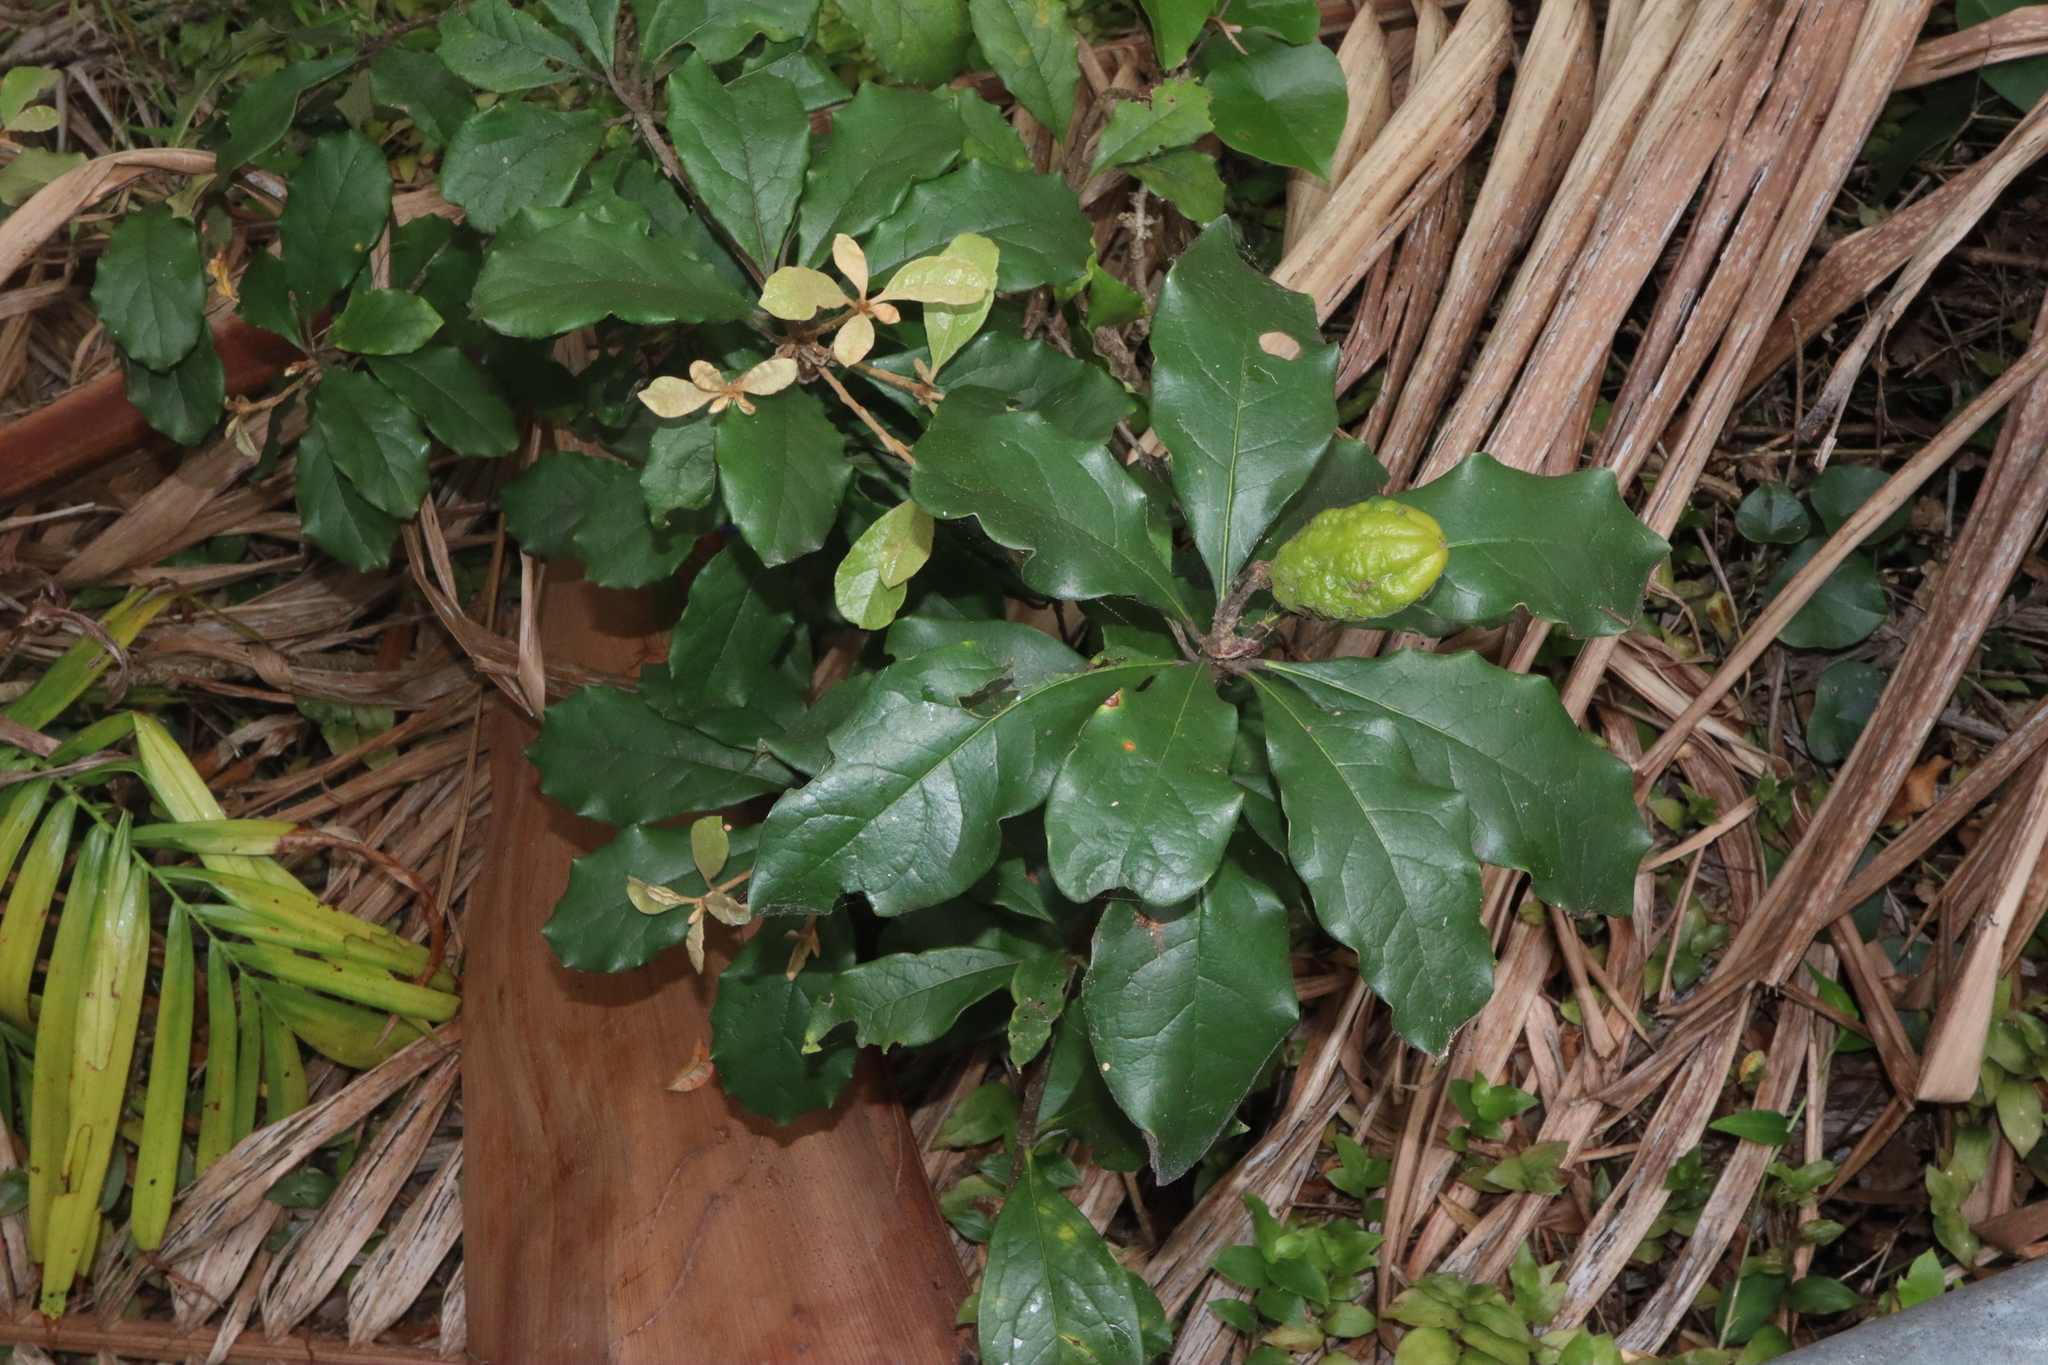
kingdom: Plantae
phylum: Tracheophyta
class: Magnoliopsida
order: Apiales
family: Pittosporaceae
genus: Pittosporum
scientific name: Pittosporum revolutum
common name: Brisbane-laurel
